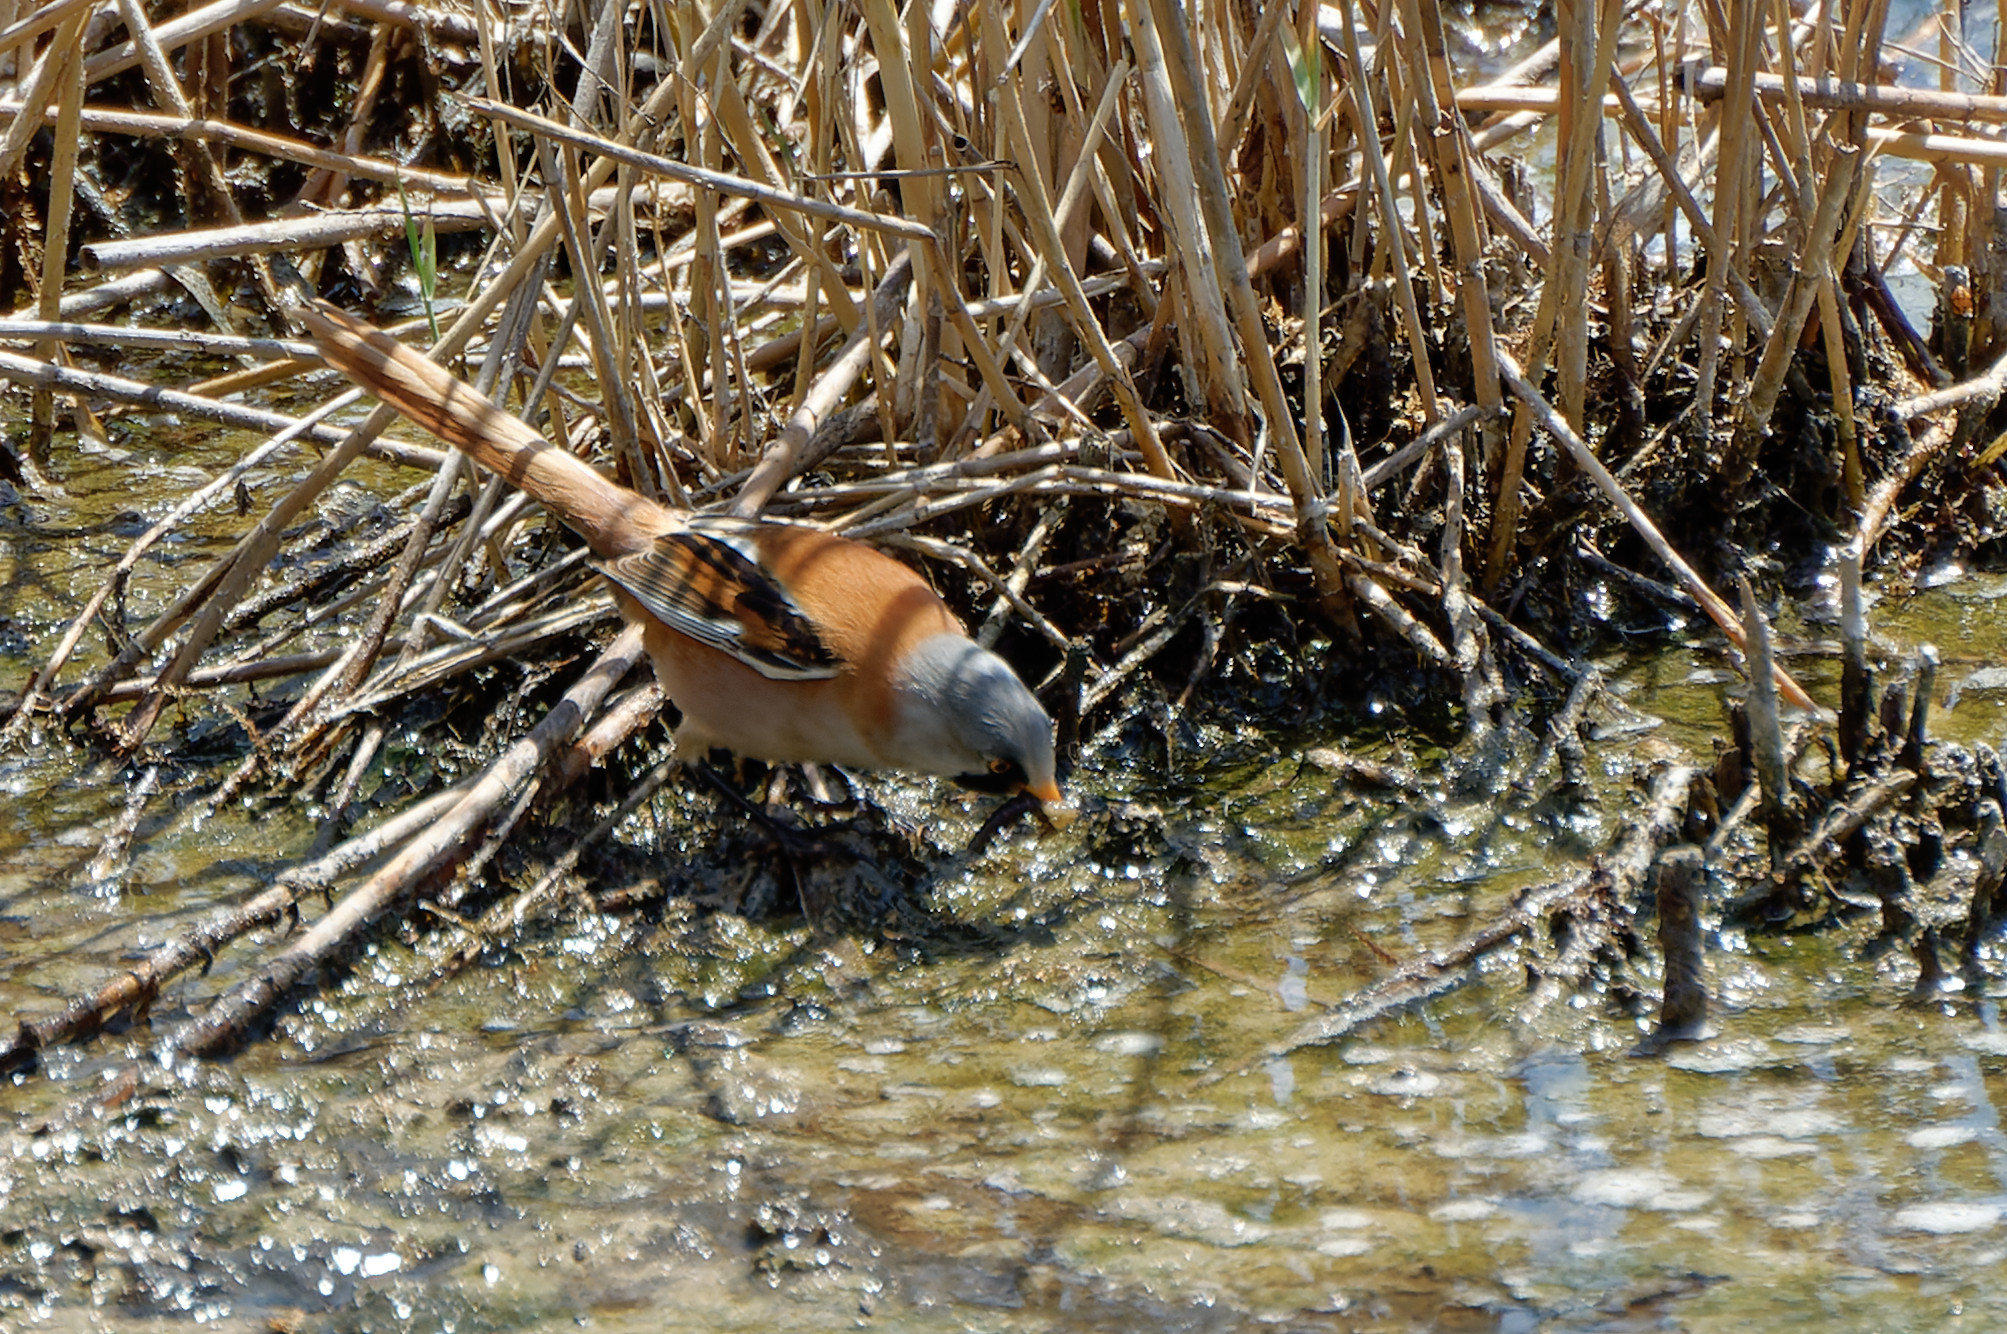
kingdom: Animalia
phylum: Chordata
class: Aves
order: Passeriformes
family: Panuridae
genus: Panurus
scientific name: Panurus biarmicus
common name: Bearded reedling
